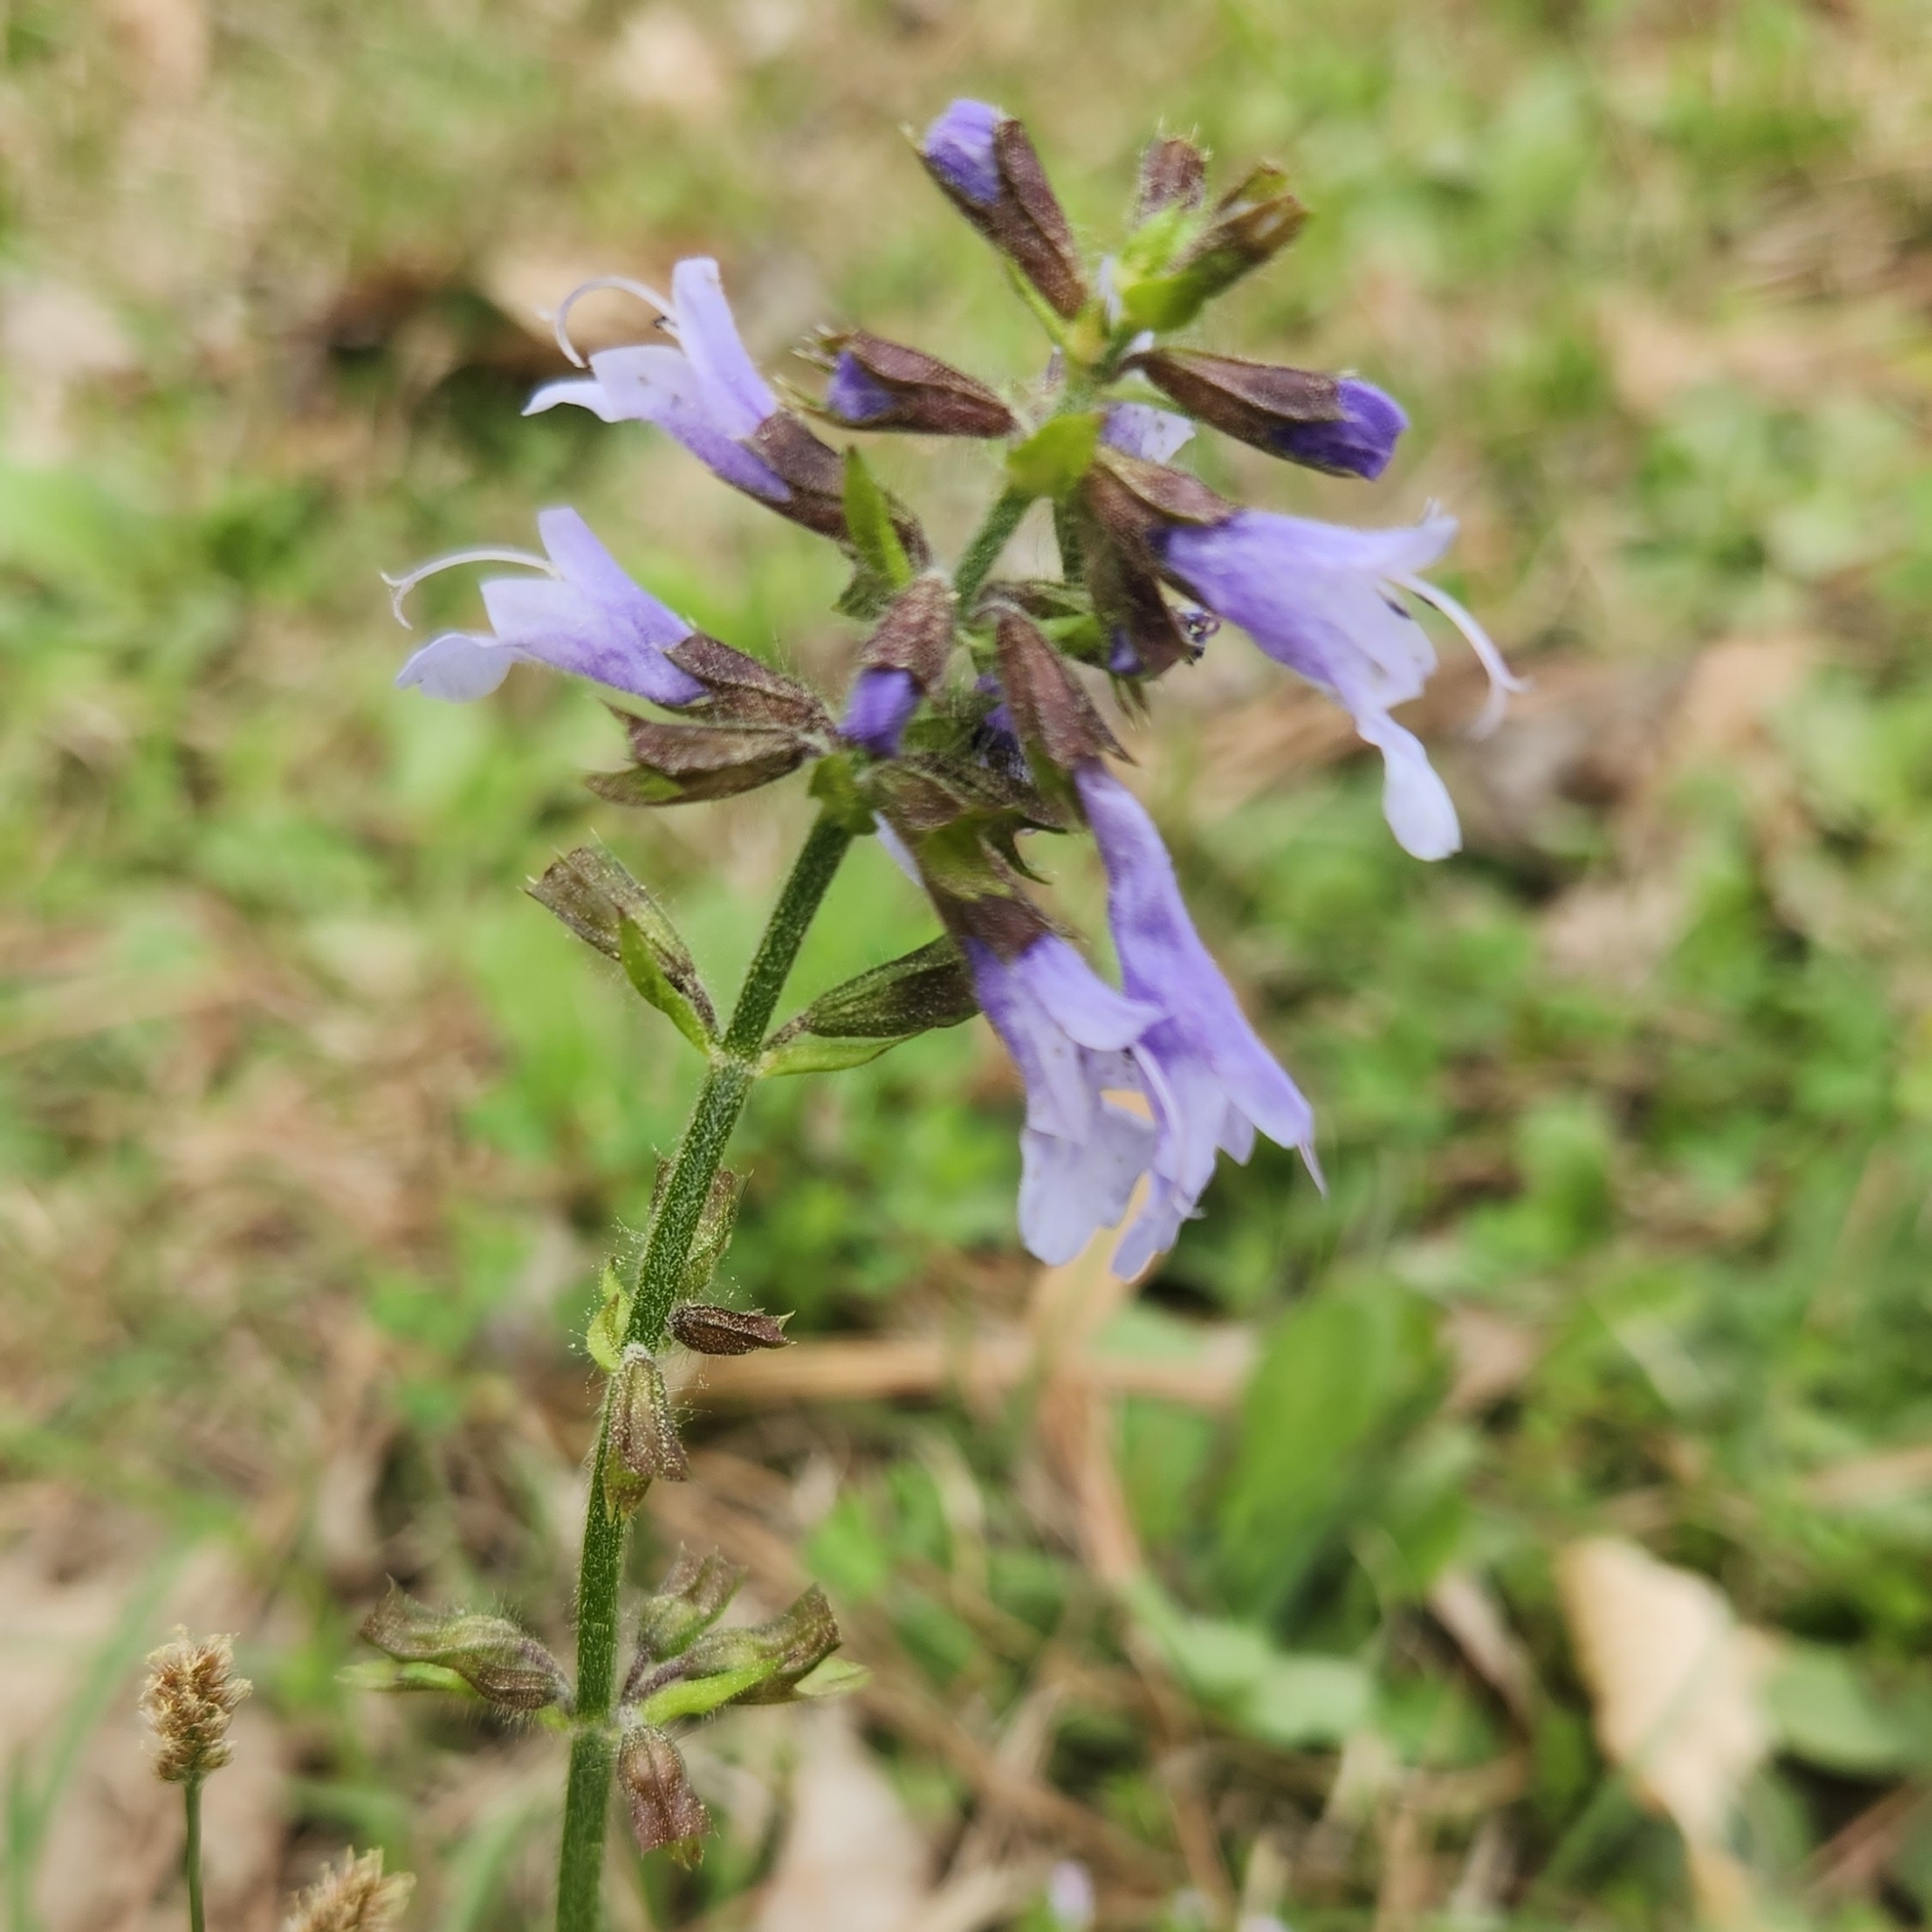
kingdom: Plantae
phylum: Tracheophyta
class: Magnoliopsida
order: Lamiales
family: Lamiaceae
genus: Salvia
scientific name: Salvia lyrata
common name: Cancerweed
